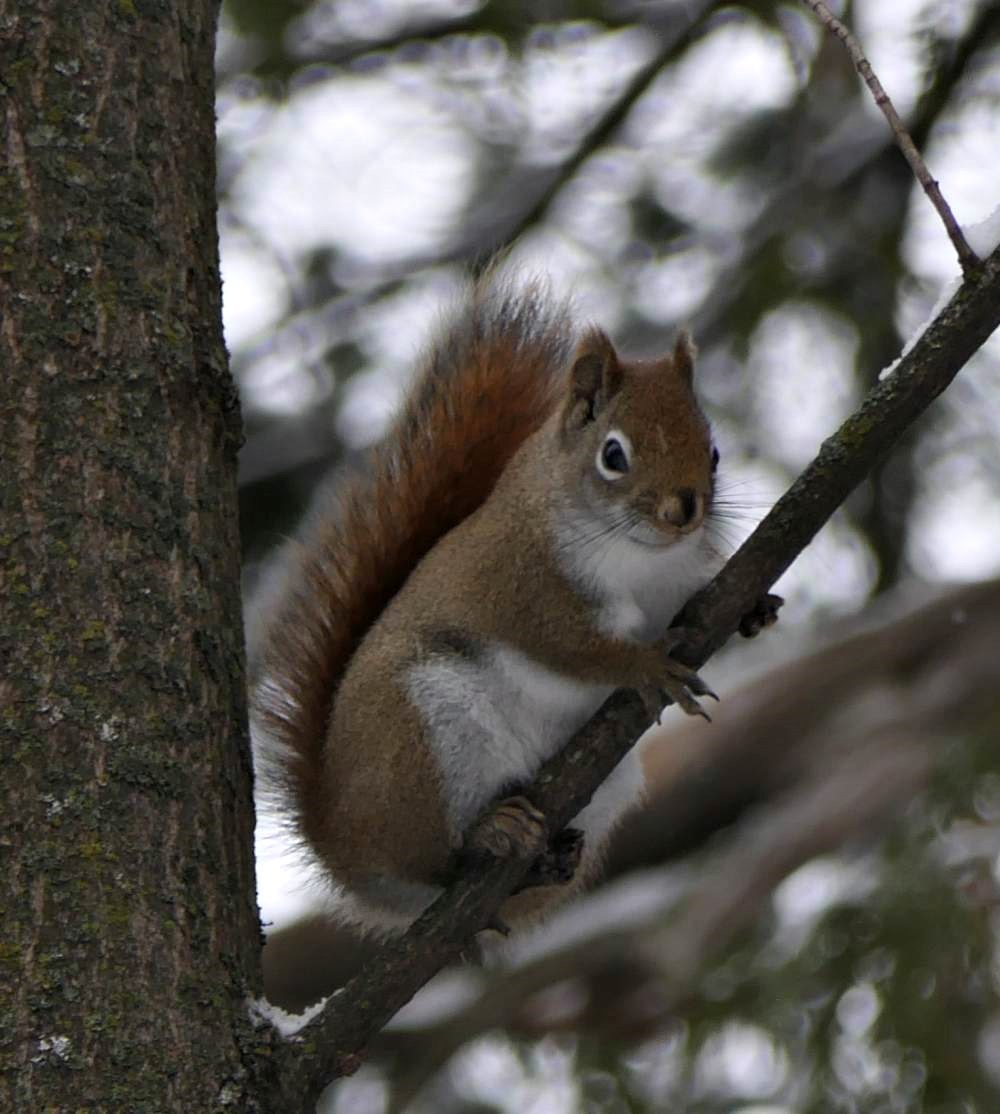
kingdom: Animalia
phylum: Chordata
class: Mammalia
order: Rodentia
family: Sciuridae
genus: Tamiasciurus
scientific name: Tamiasciurus hudsonicus
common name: Red squirrel
